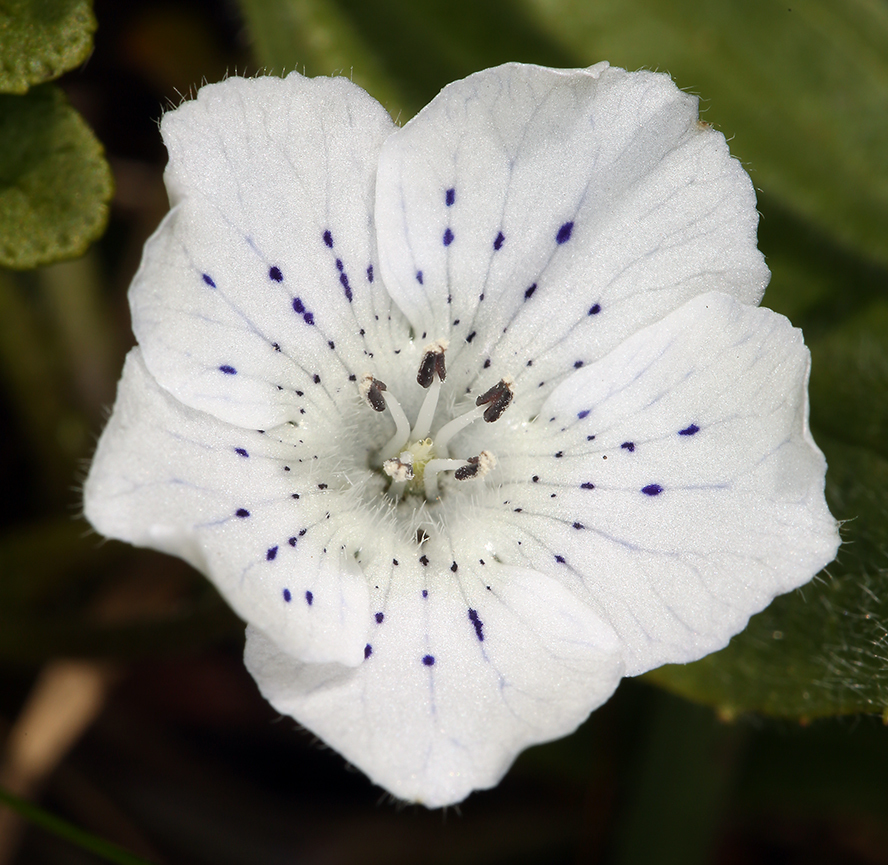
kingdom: Plantae
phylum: Tracheophyta
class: Magnoliopsida
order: Boraginales
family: Hydrophyllaceae
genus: Nemophila
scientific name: Nemophila menziesii
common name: Baby's-blue-eyes
